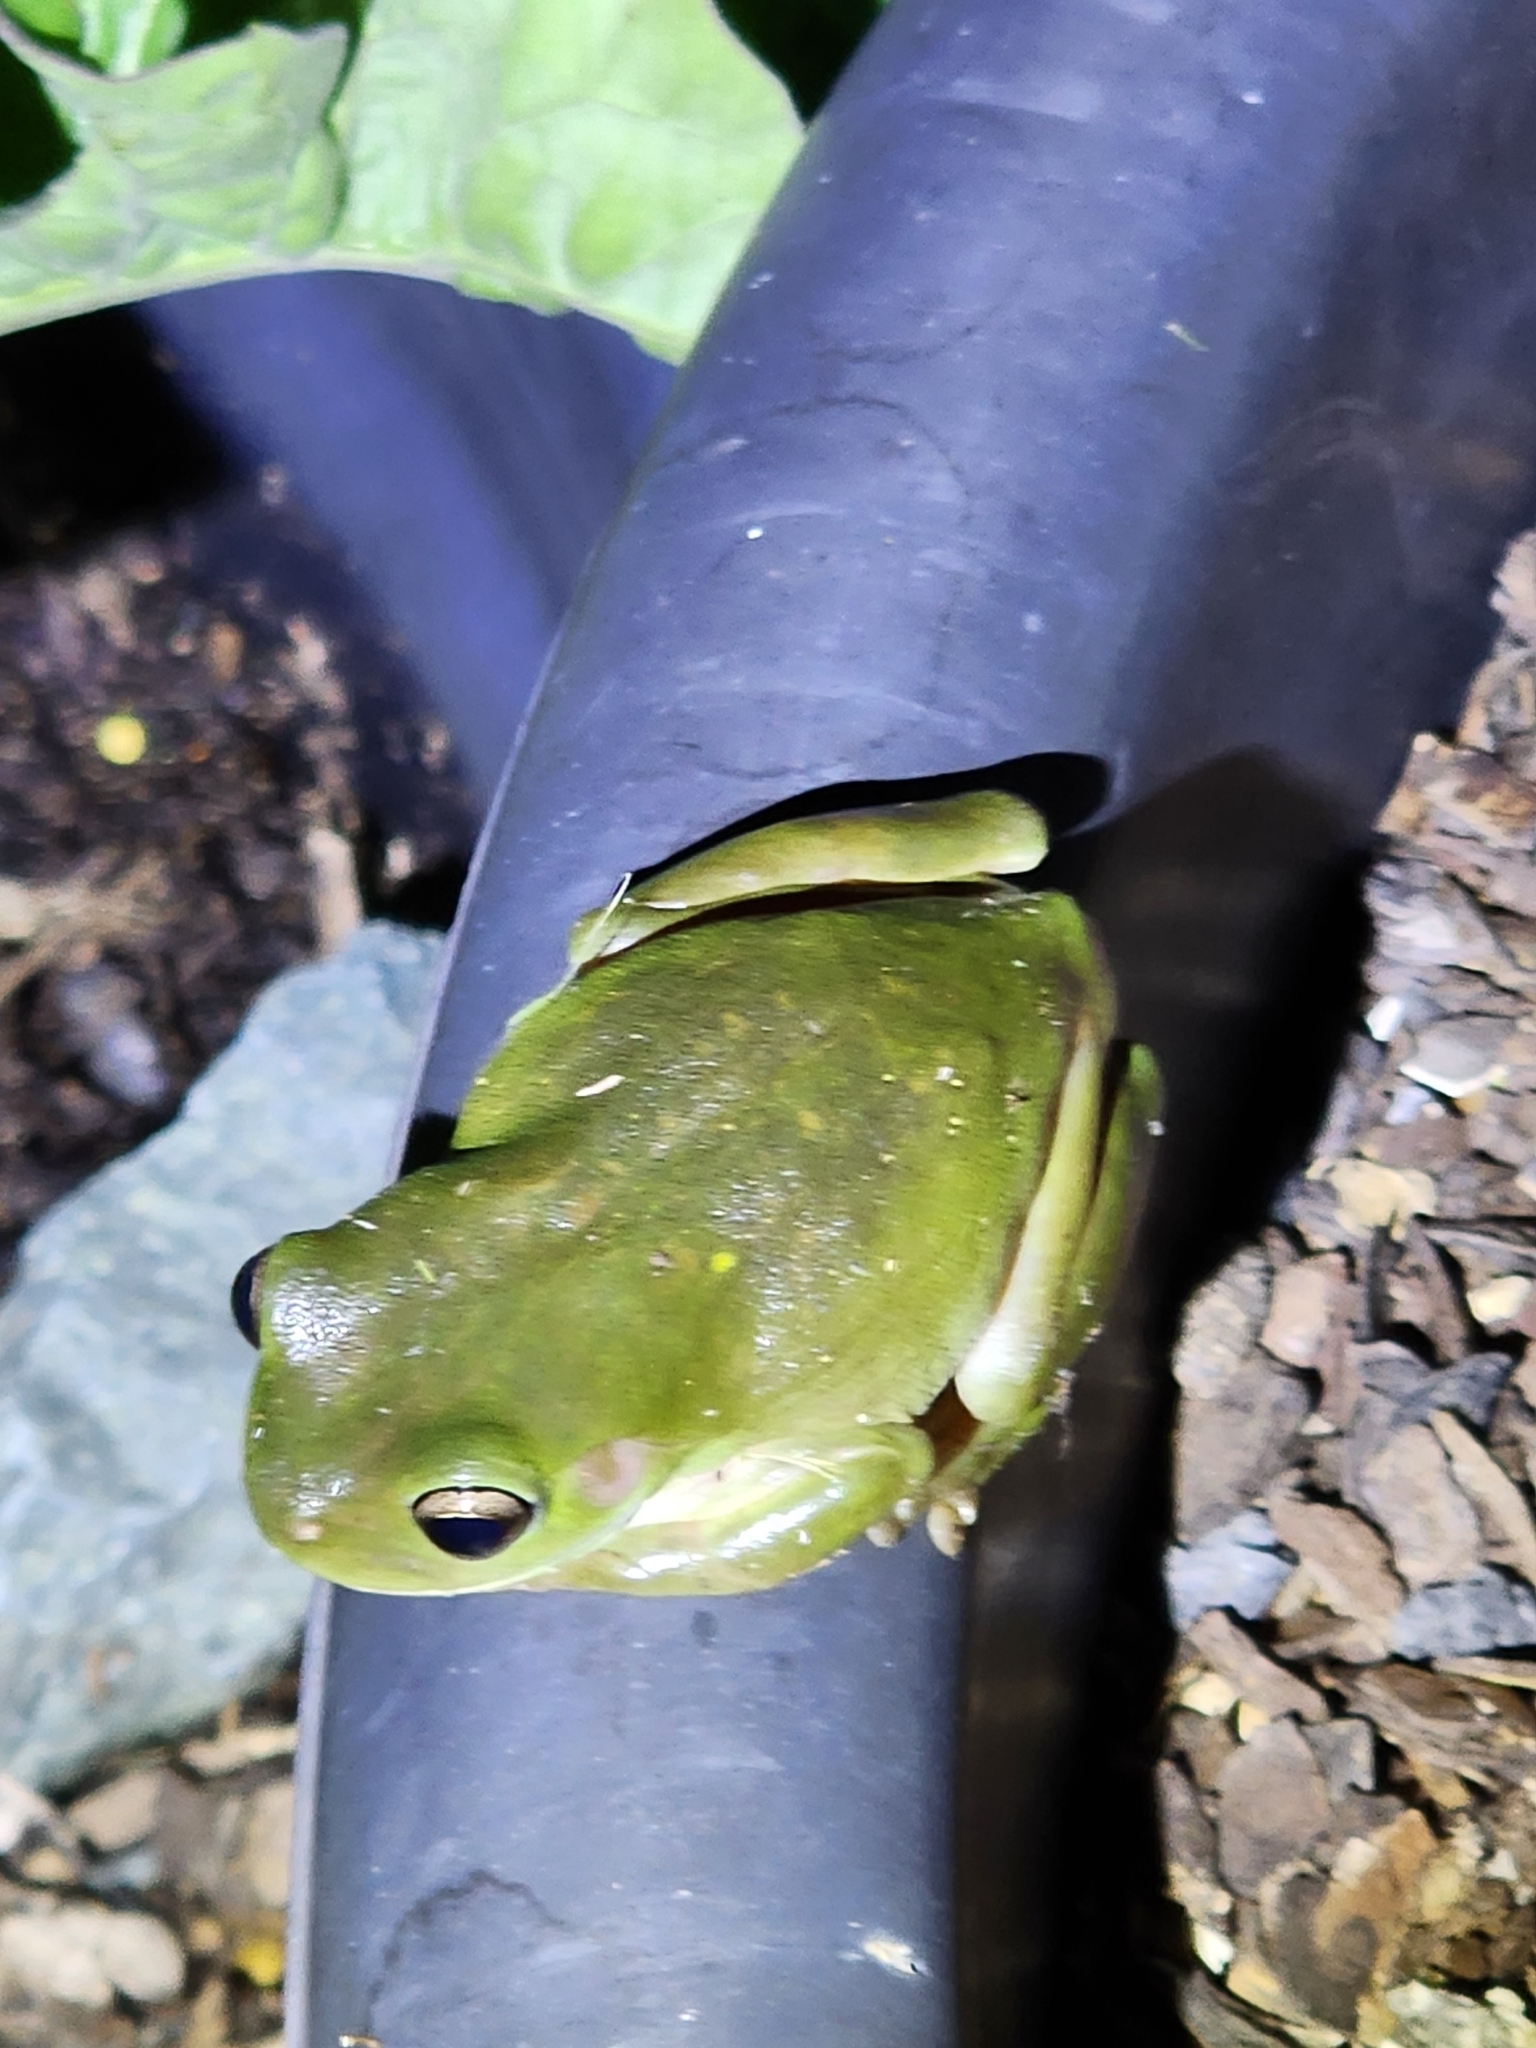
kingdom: Animalia
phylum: Chordata
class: Amphibia
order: Anura
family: Pelodryadidae
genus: Ranoidea
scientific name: Ranoidea caerulea
